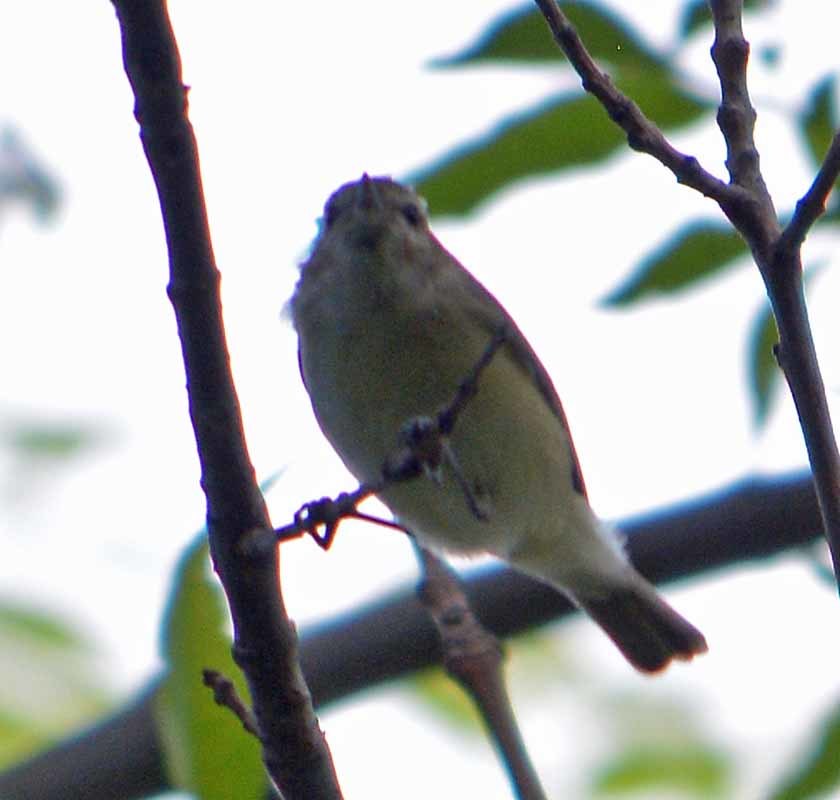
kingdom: Animalia
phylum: Chordata
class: Aves
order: Passeriformes
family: Vireonidae
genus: Vireo
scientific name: Vireo gilvus
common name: Warbling vireo
